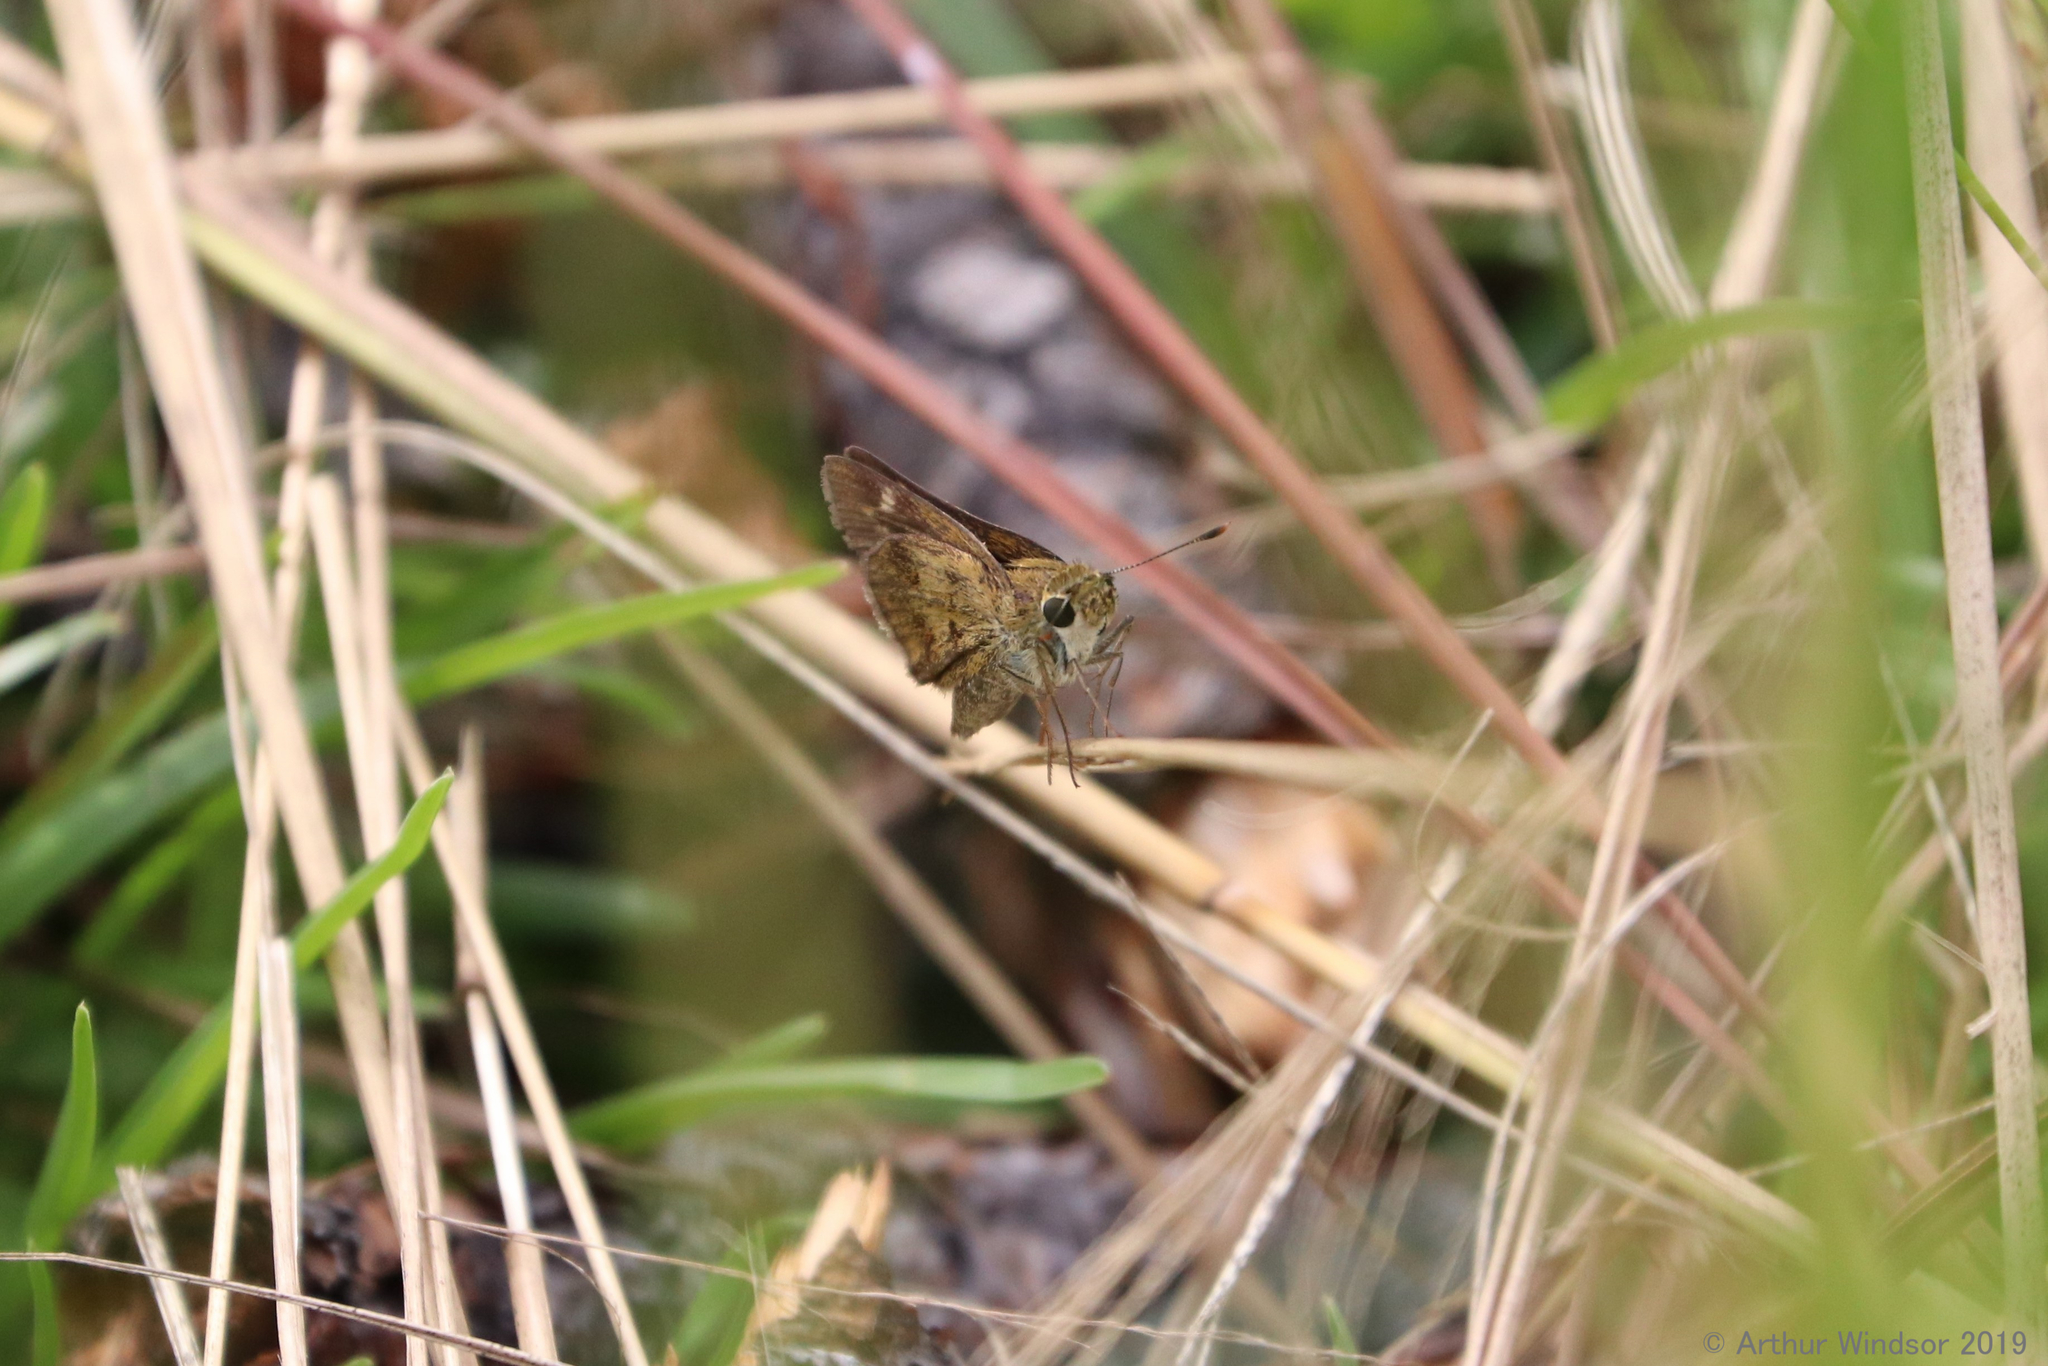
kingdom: Animalia
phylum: Arthropoda
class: Insecta
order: Lepidoptera
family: Hesperiidae
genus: Polites
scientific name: Polites vibex
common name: Whirlabout
